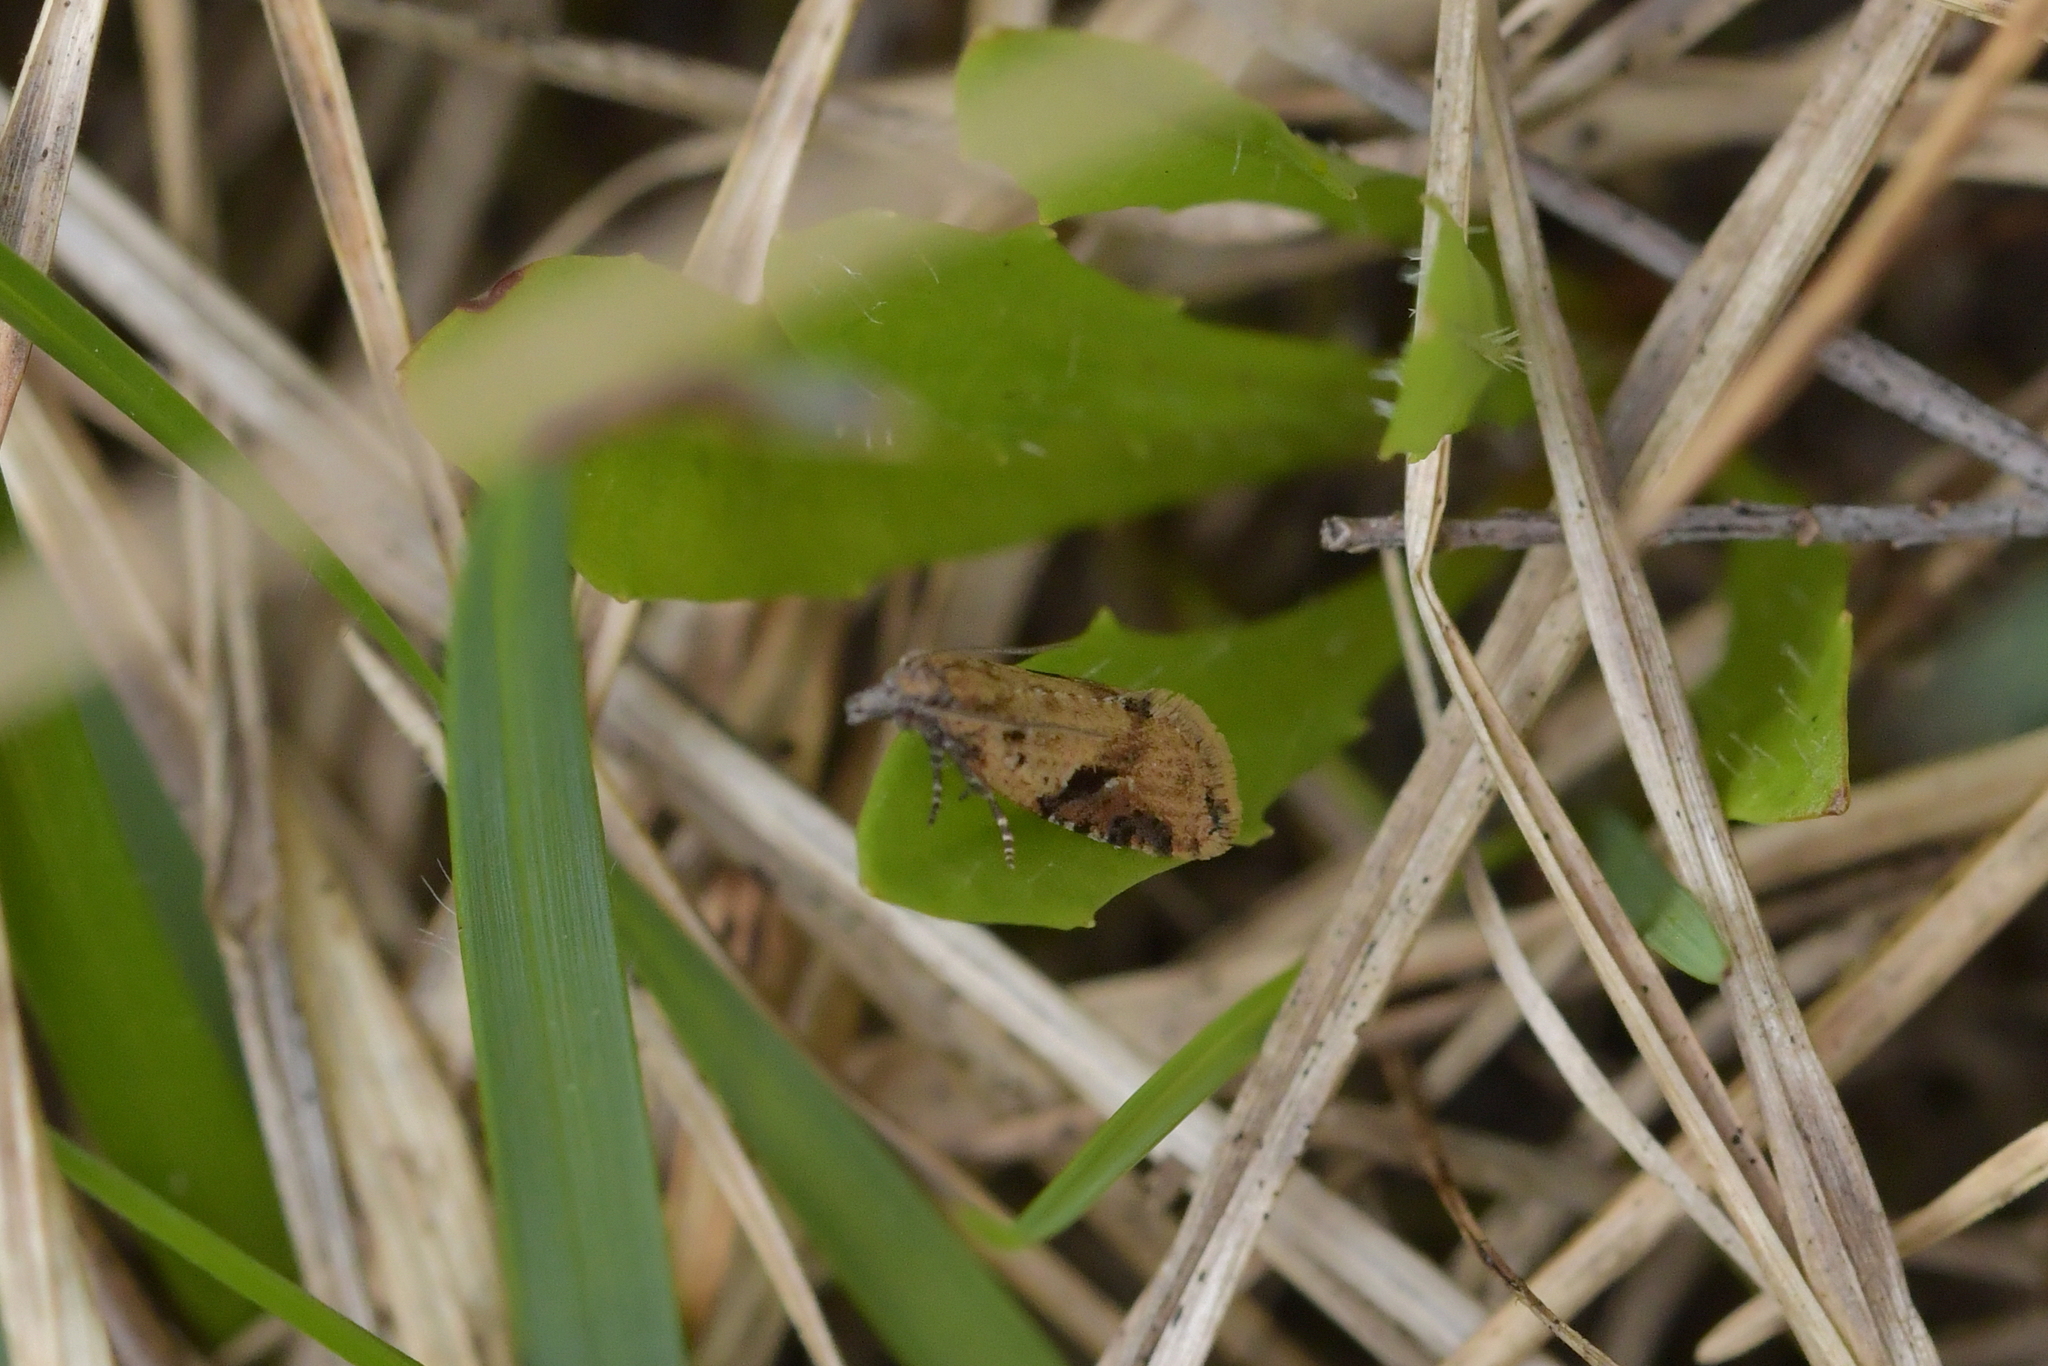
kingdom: Animalia
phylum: Arthropoda
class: Insecta
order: Lepidoptera
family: Tortricidae
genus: Capua
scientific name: Capua semiferana
